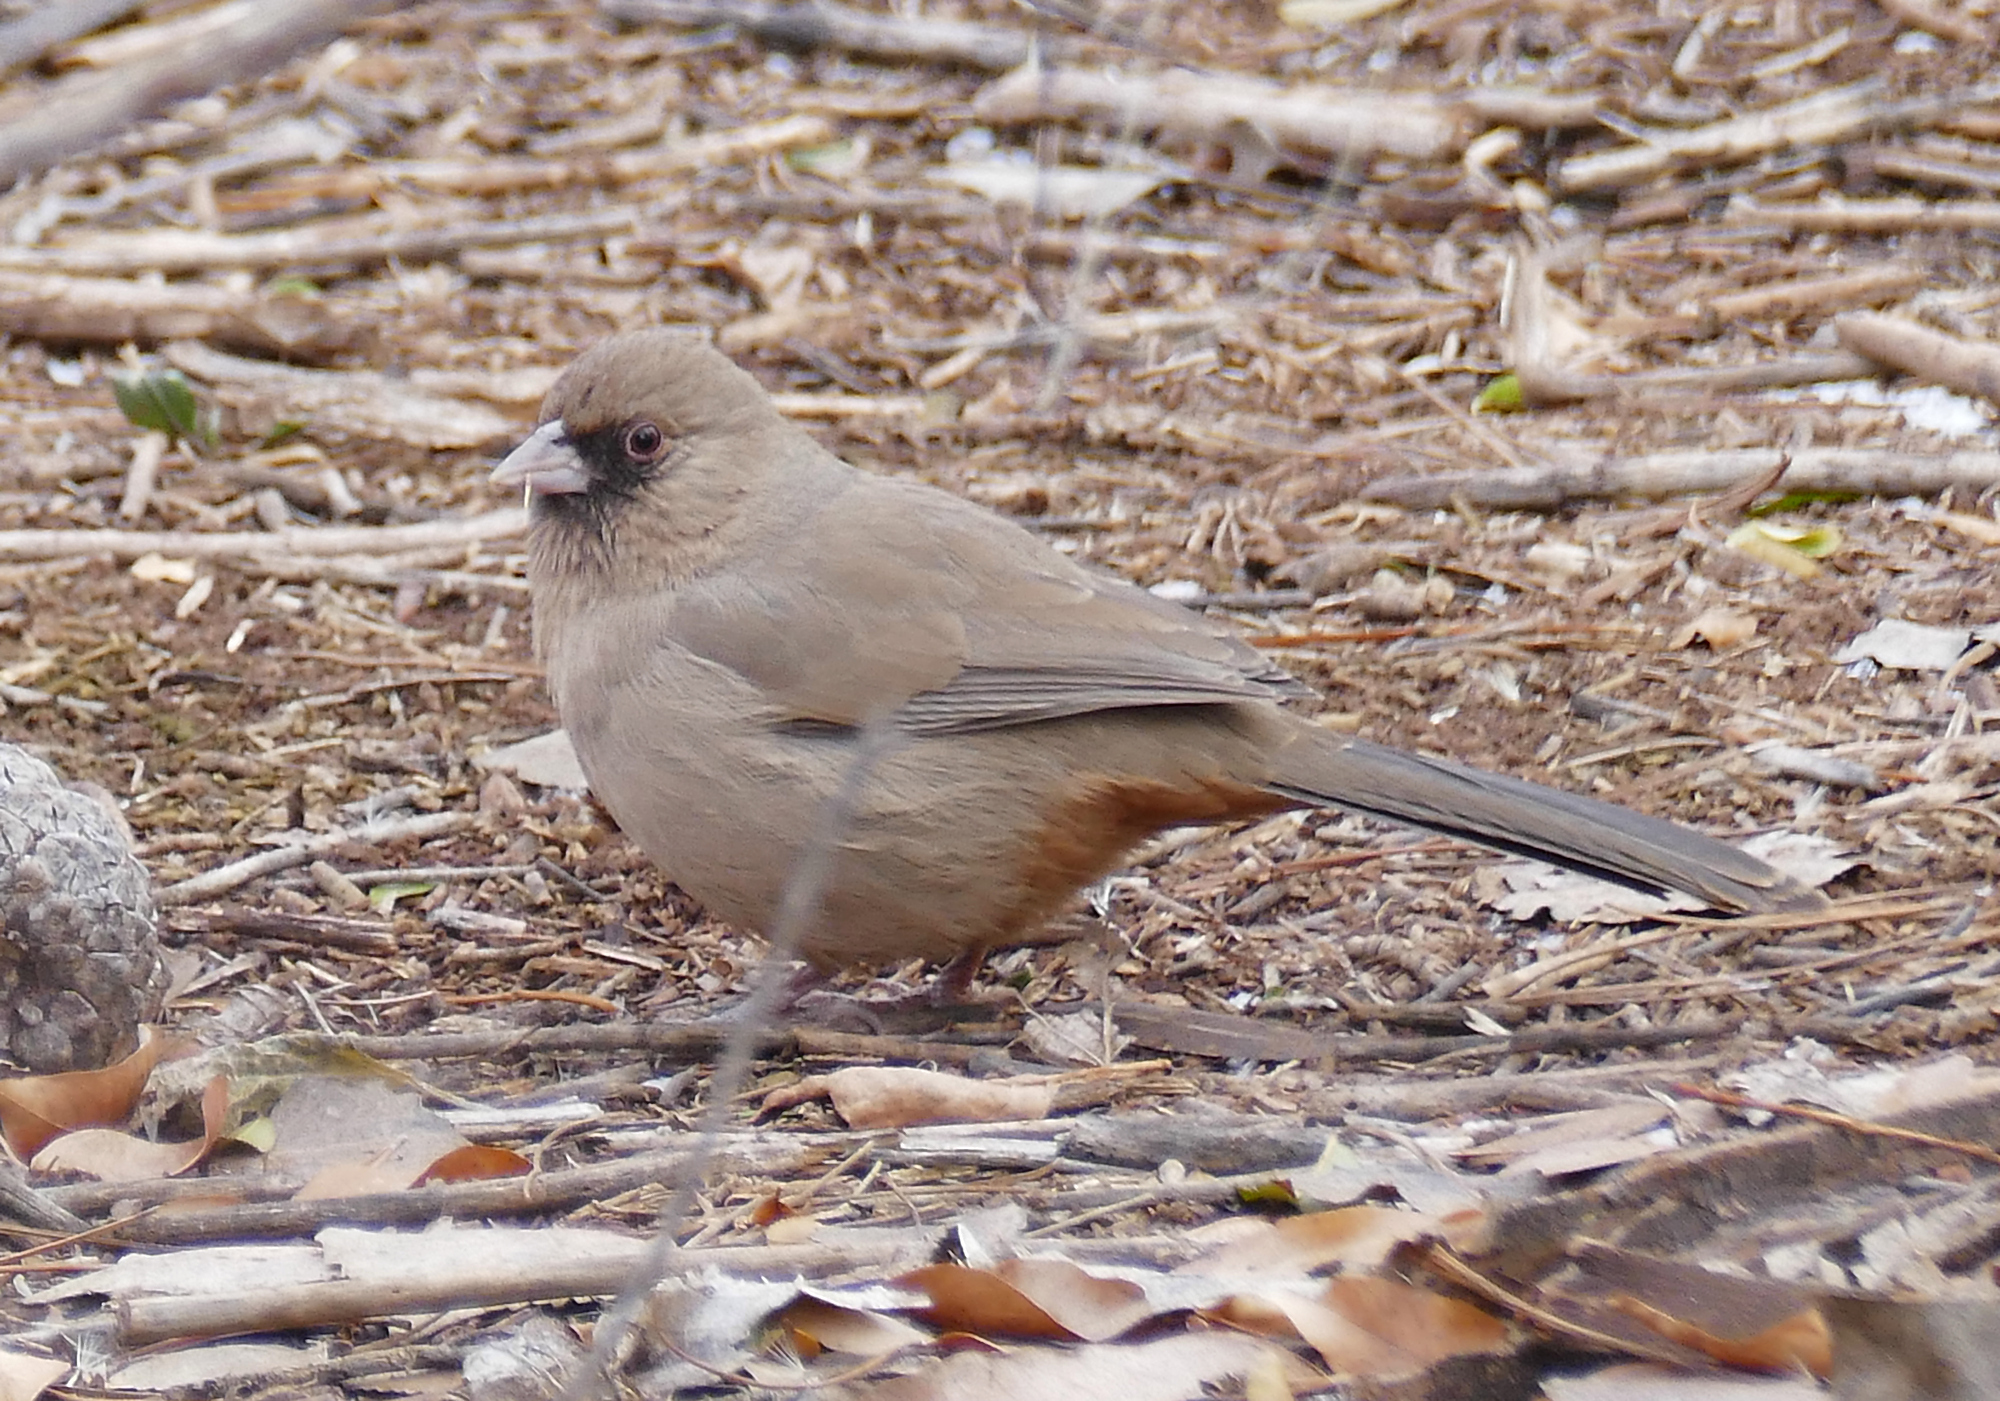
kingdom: Animalia
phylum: Chordata
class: Aves
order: Passeriformes
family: Passerellidae
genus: Melozone
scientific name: Melozone aberti
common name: Abert's towhee
